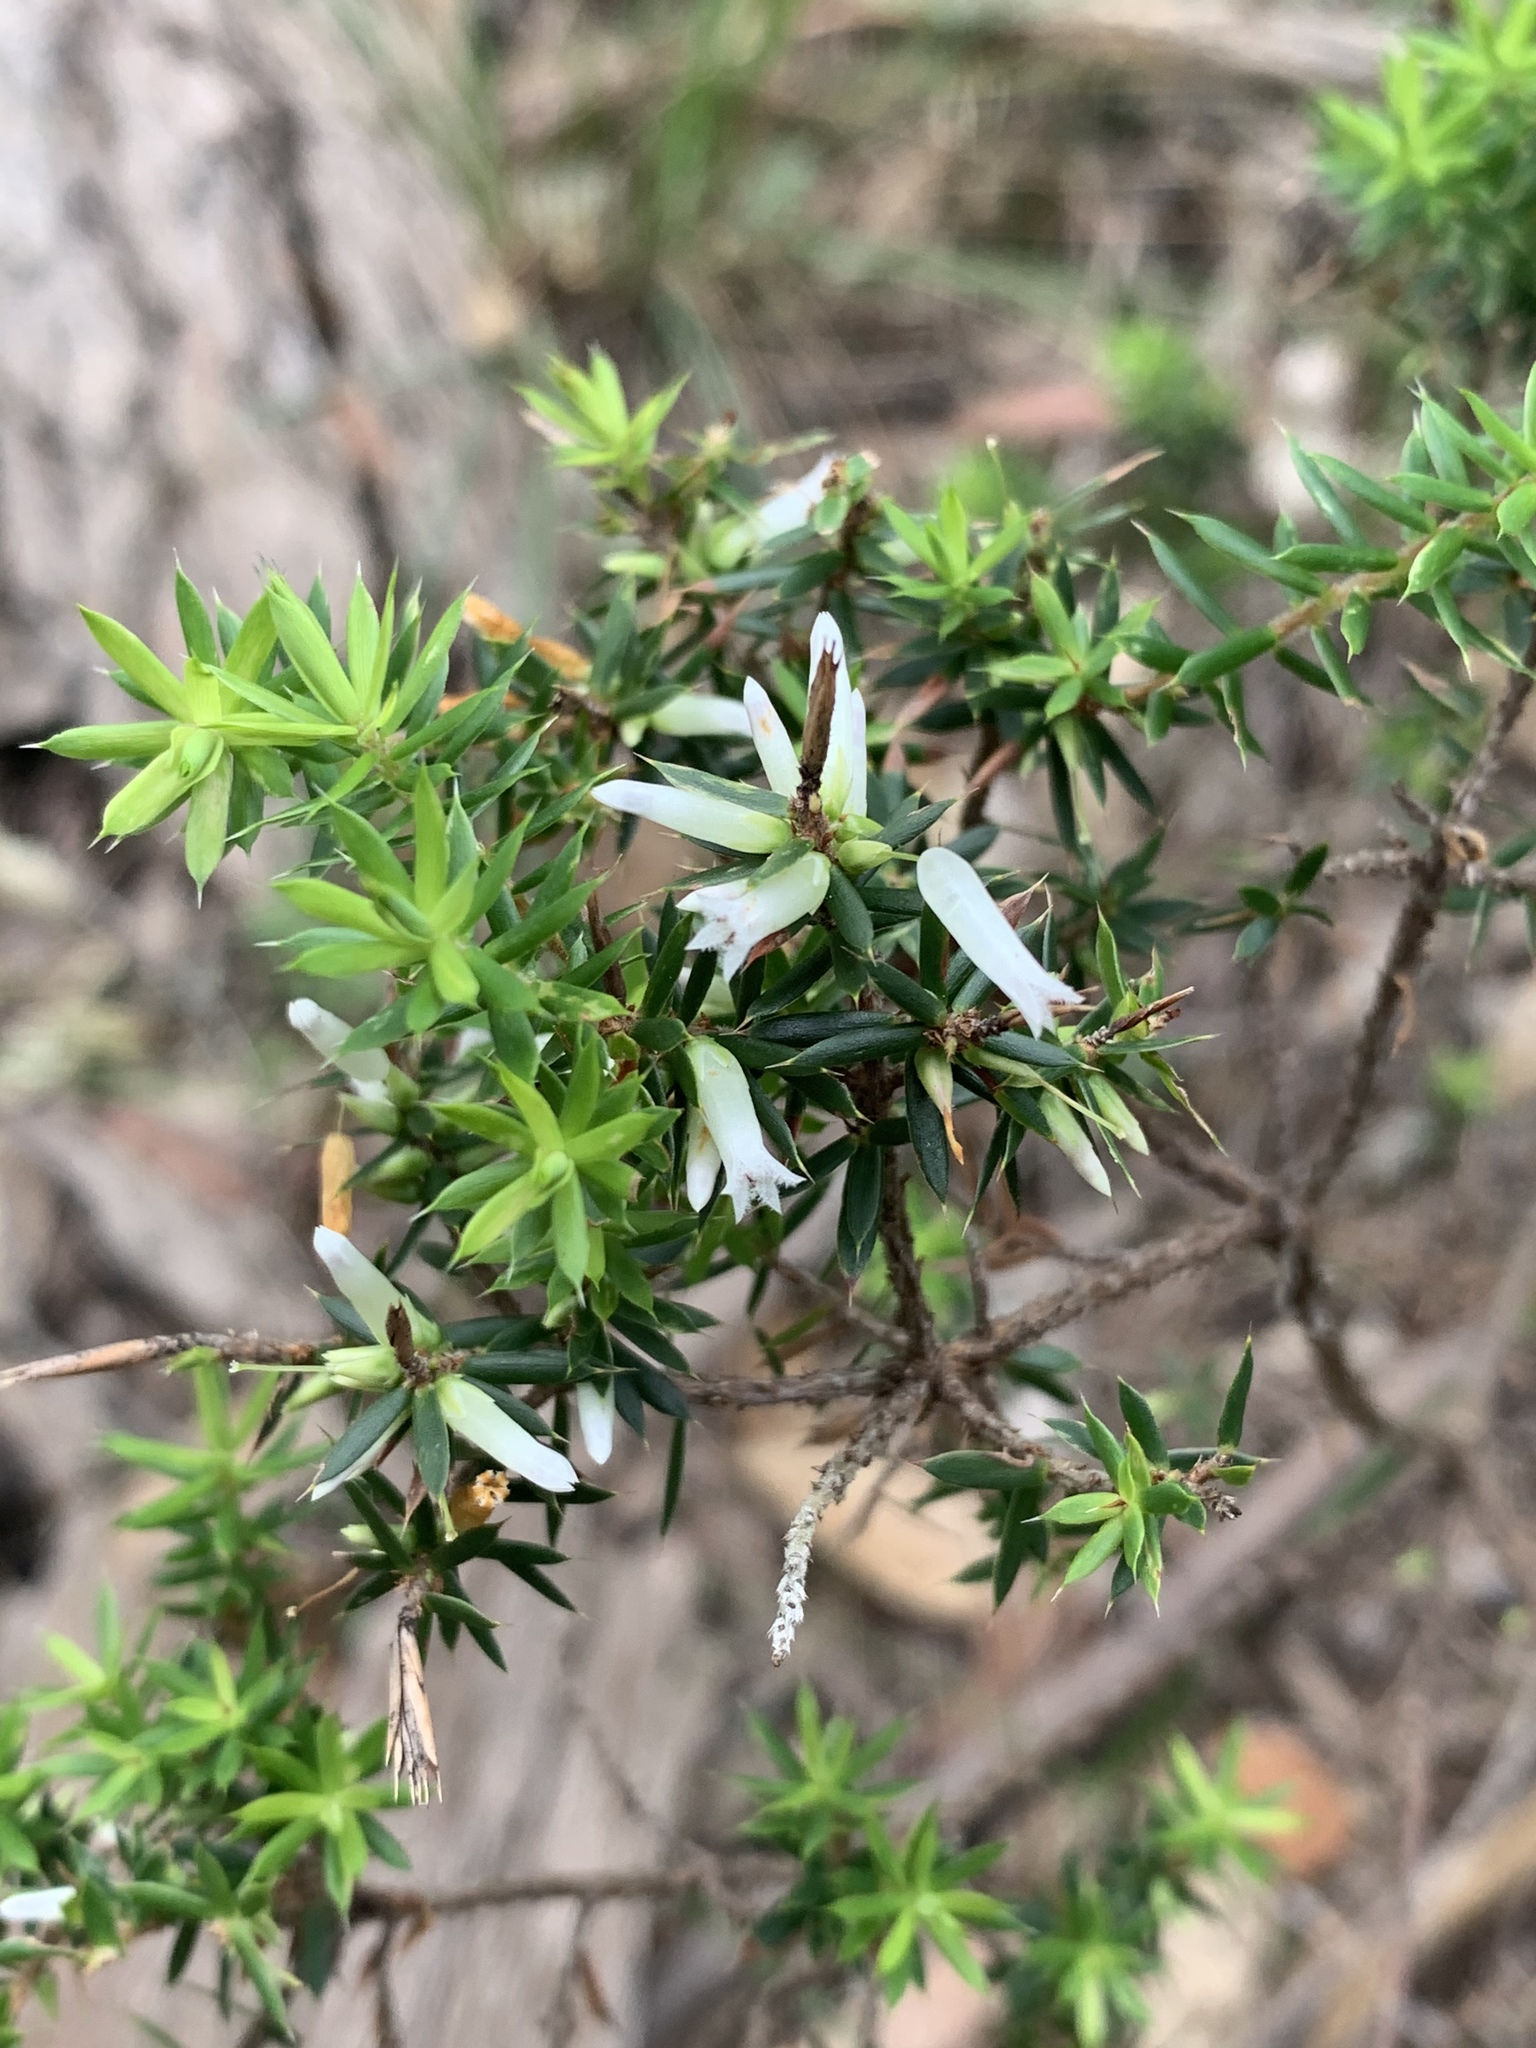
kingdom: Plantae
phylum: Tracheophyta
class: Magnoliopsida
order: Ericales
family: Ericaceae
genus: Styphelia
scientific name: Styphelia sieberi
